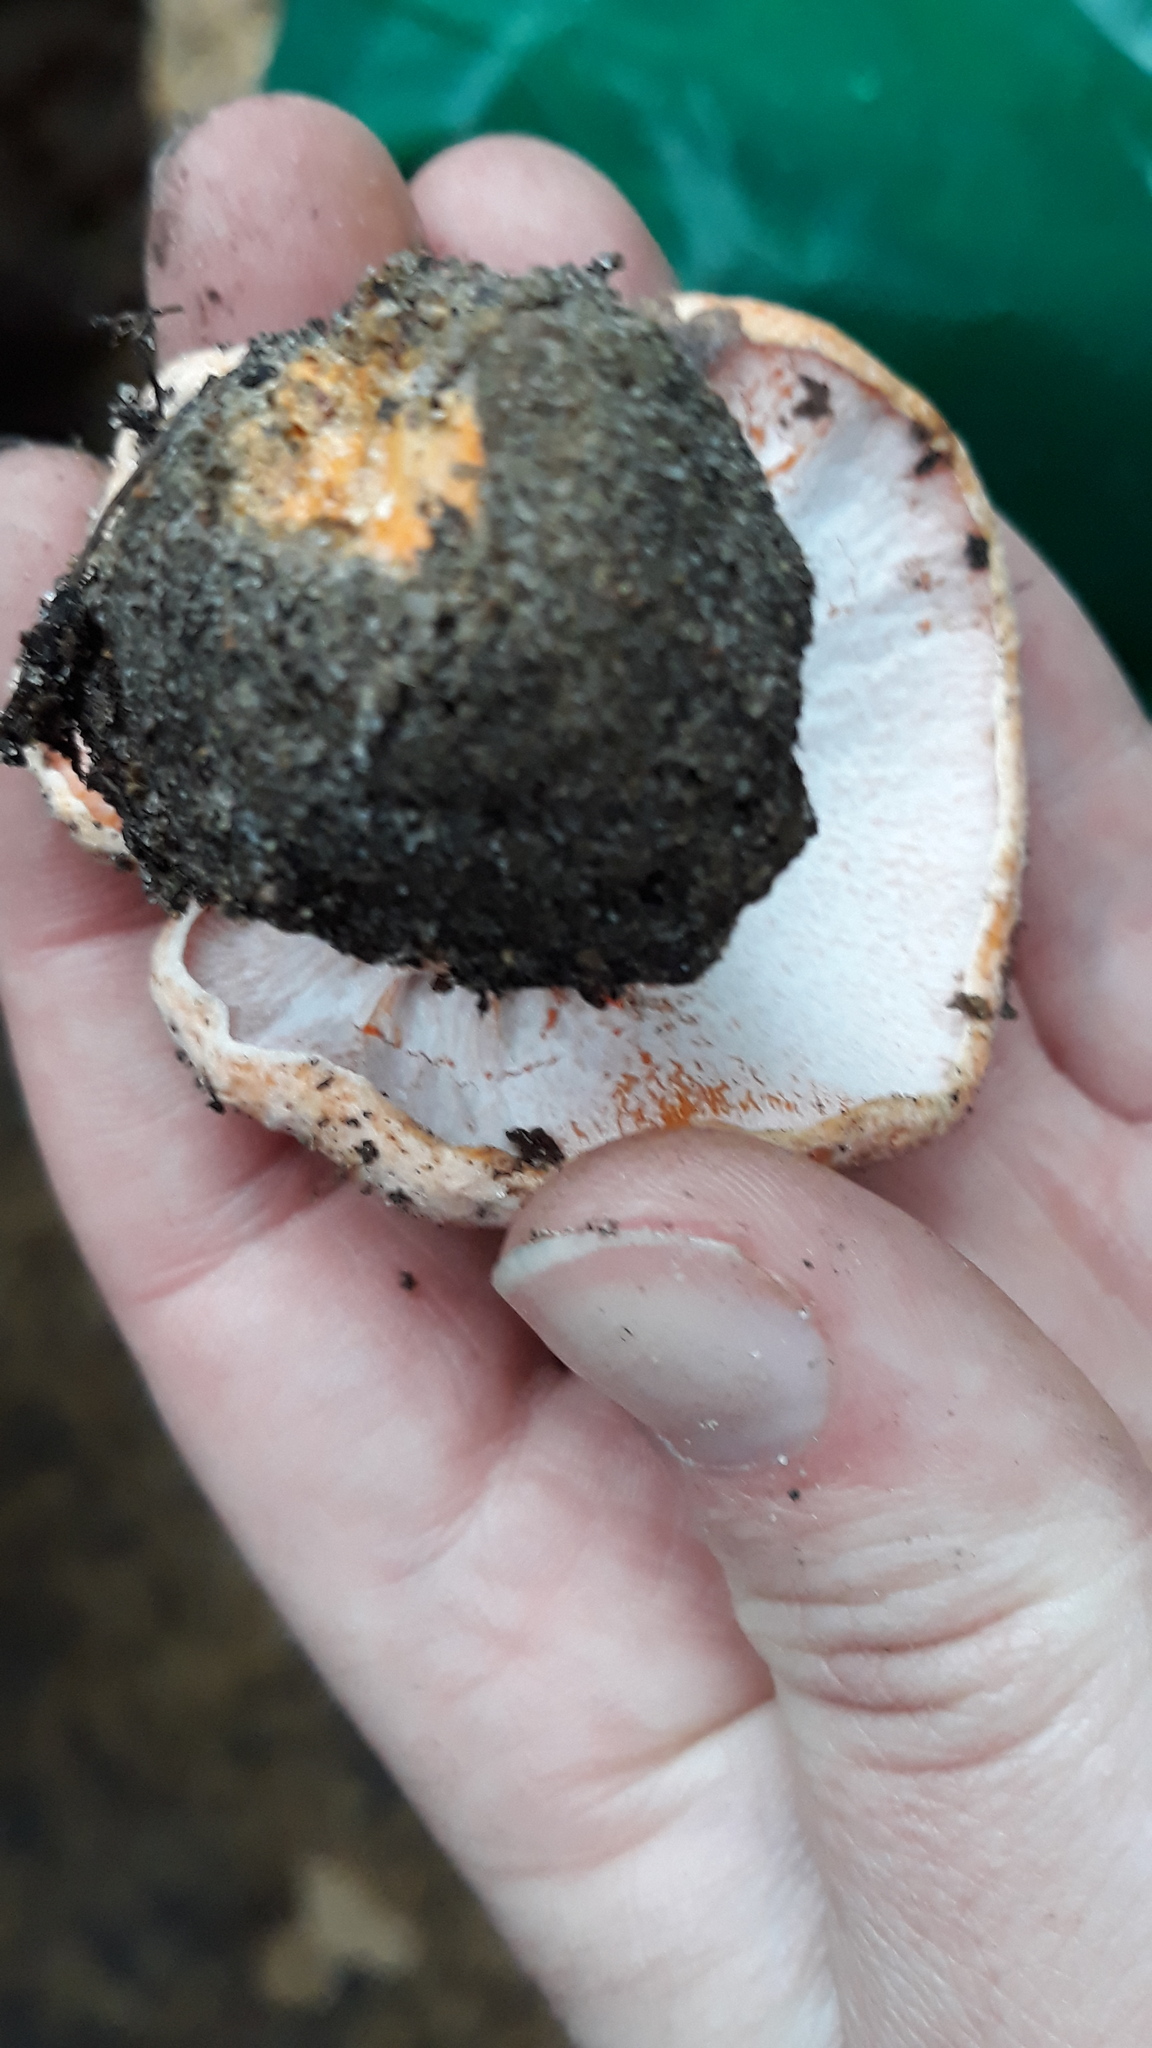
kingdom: Fungi
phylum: Ascomycota
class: Sordariomycetes
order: Hypocreales
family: Hypocreaceae
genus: Hypomyces
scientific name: Hypomyces lateritius
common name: Ochre gillgobbler
